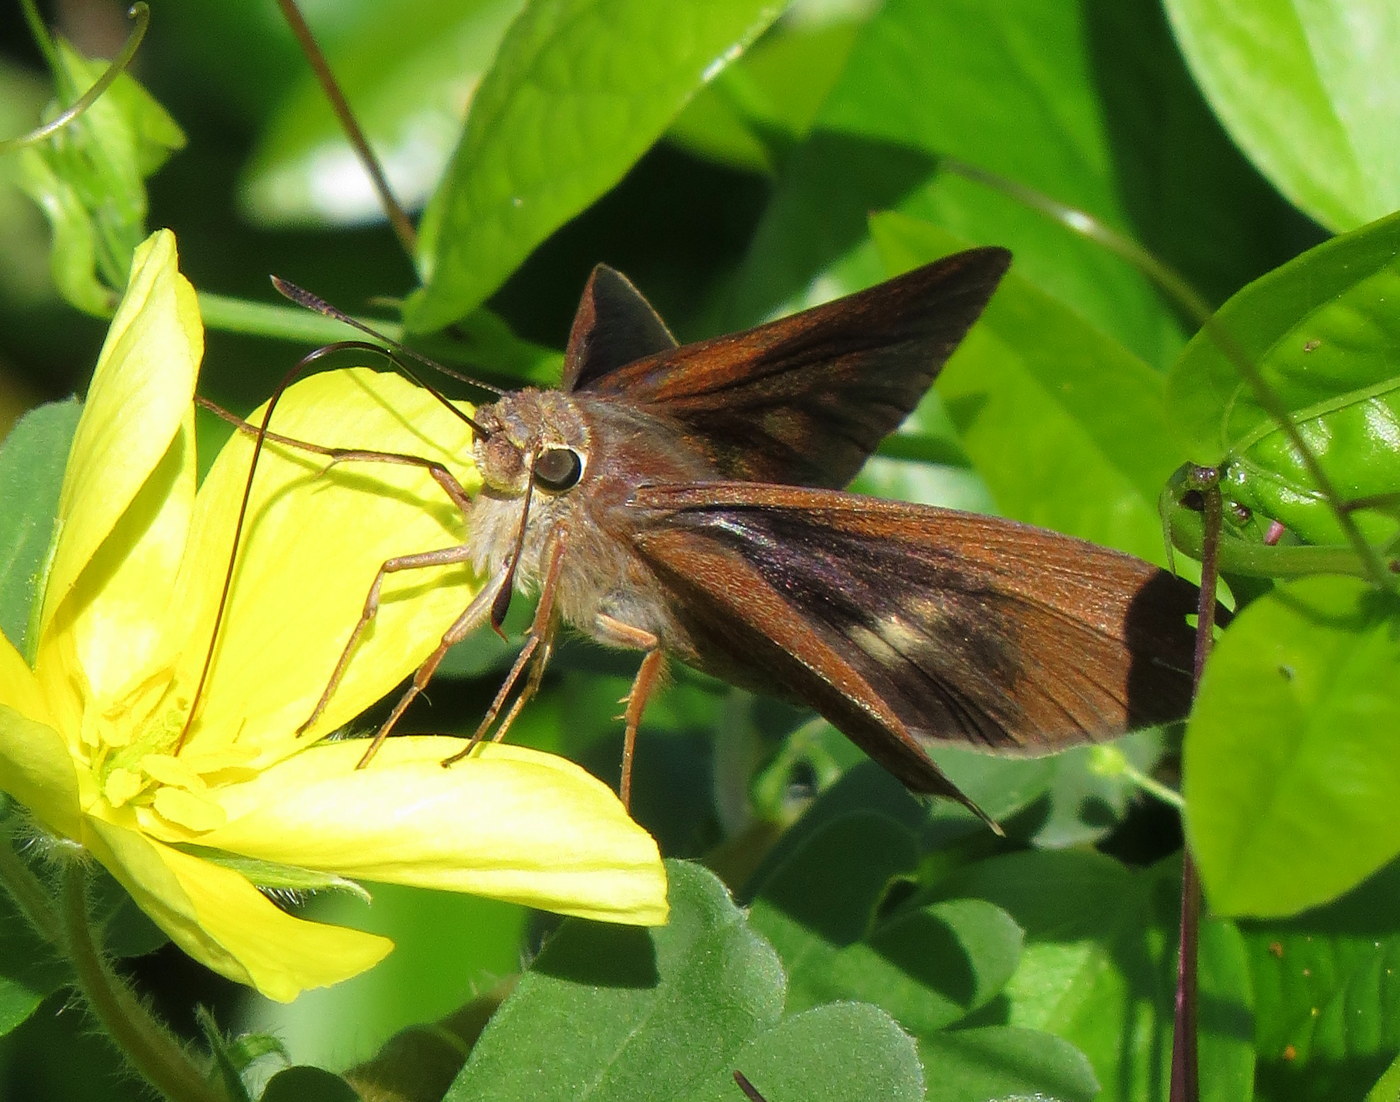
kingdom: Animalia
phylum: Arthropoda
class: Insecta
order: Lepidoptera
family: Hesperiidae
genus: Asbolis
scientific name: Asbolis capucinus
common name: Monk skipper
